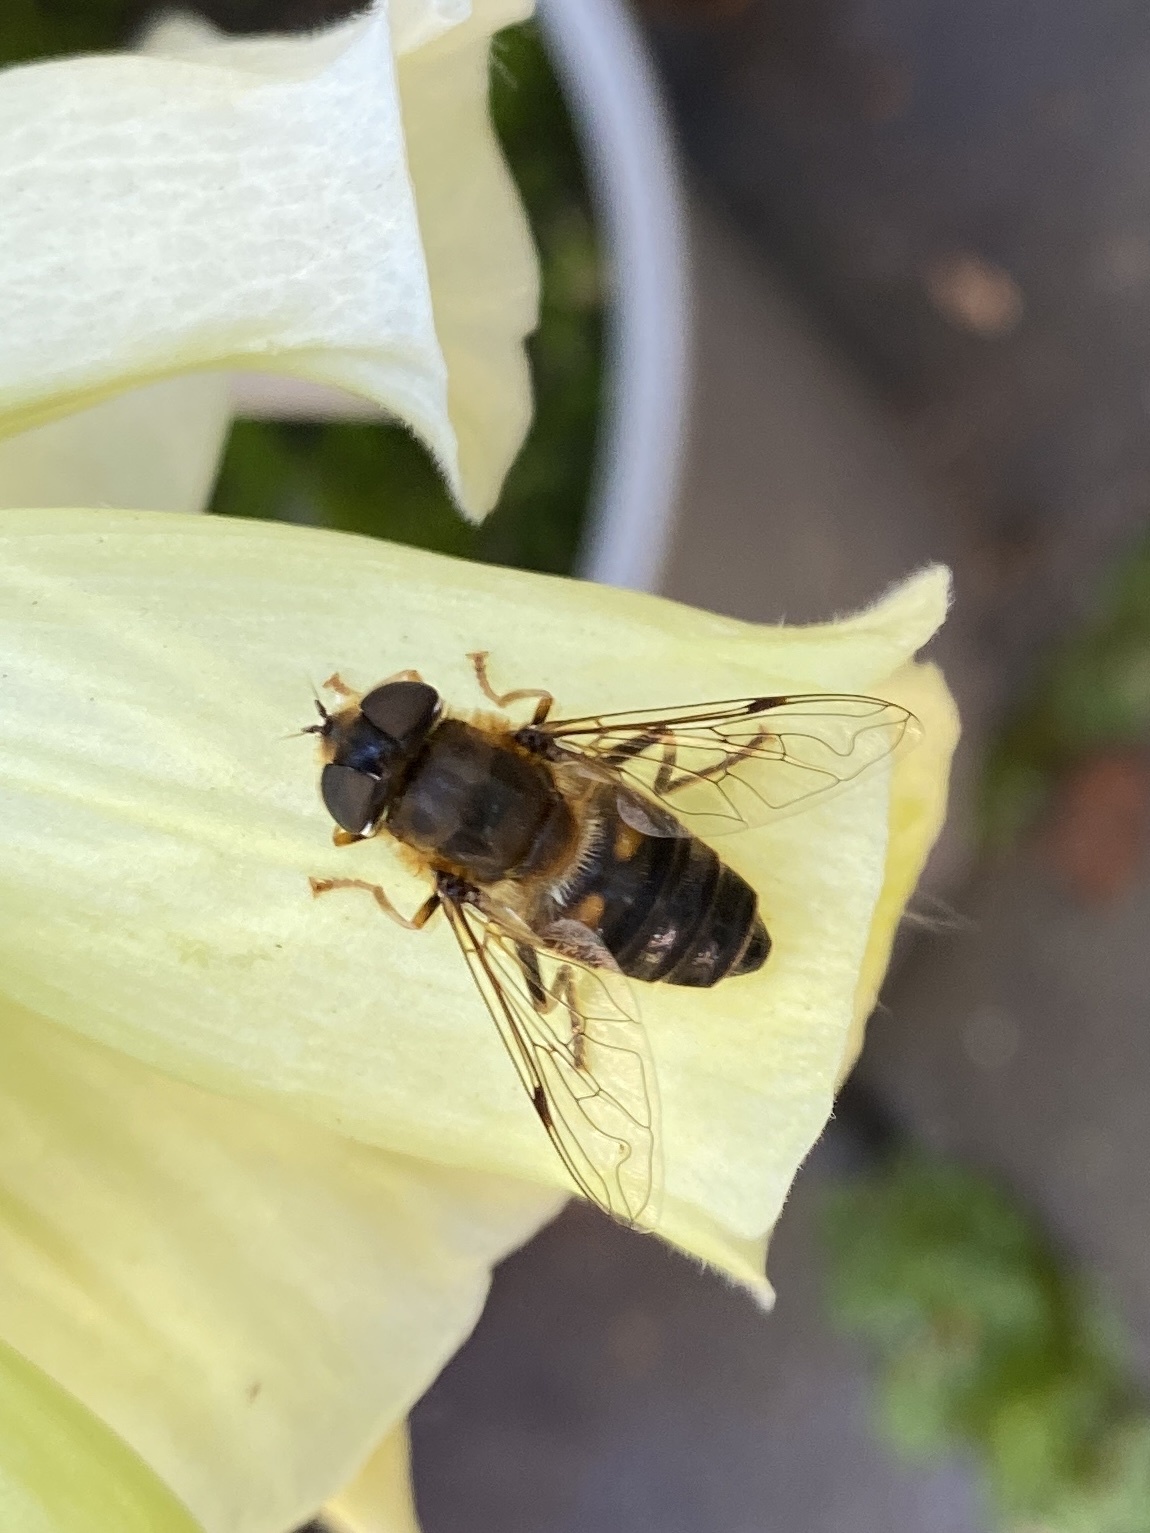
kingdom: Animalia
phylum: Arthropoda
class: Insecta
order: Diptera
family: Syrphidae
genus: Eristalis
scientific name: Eristalis pertinax
